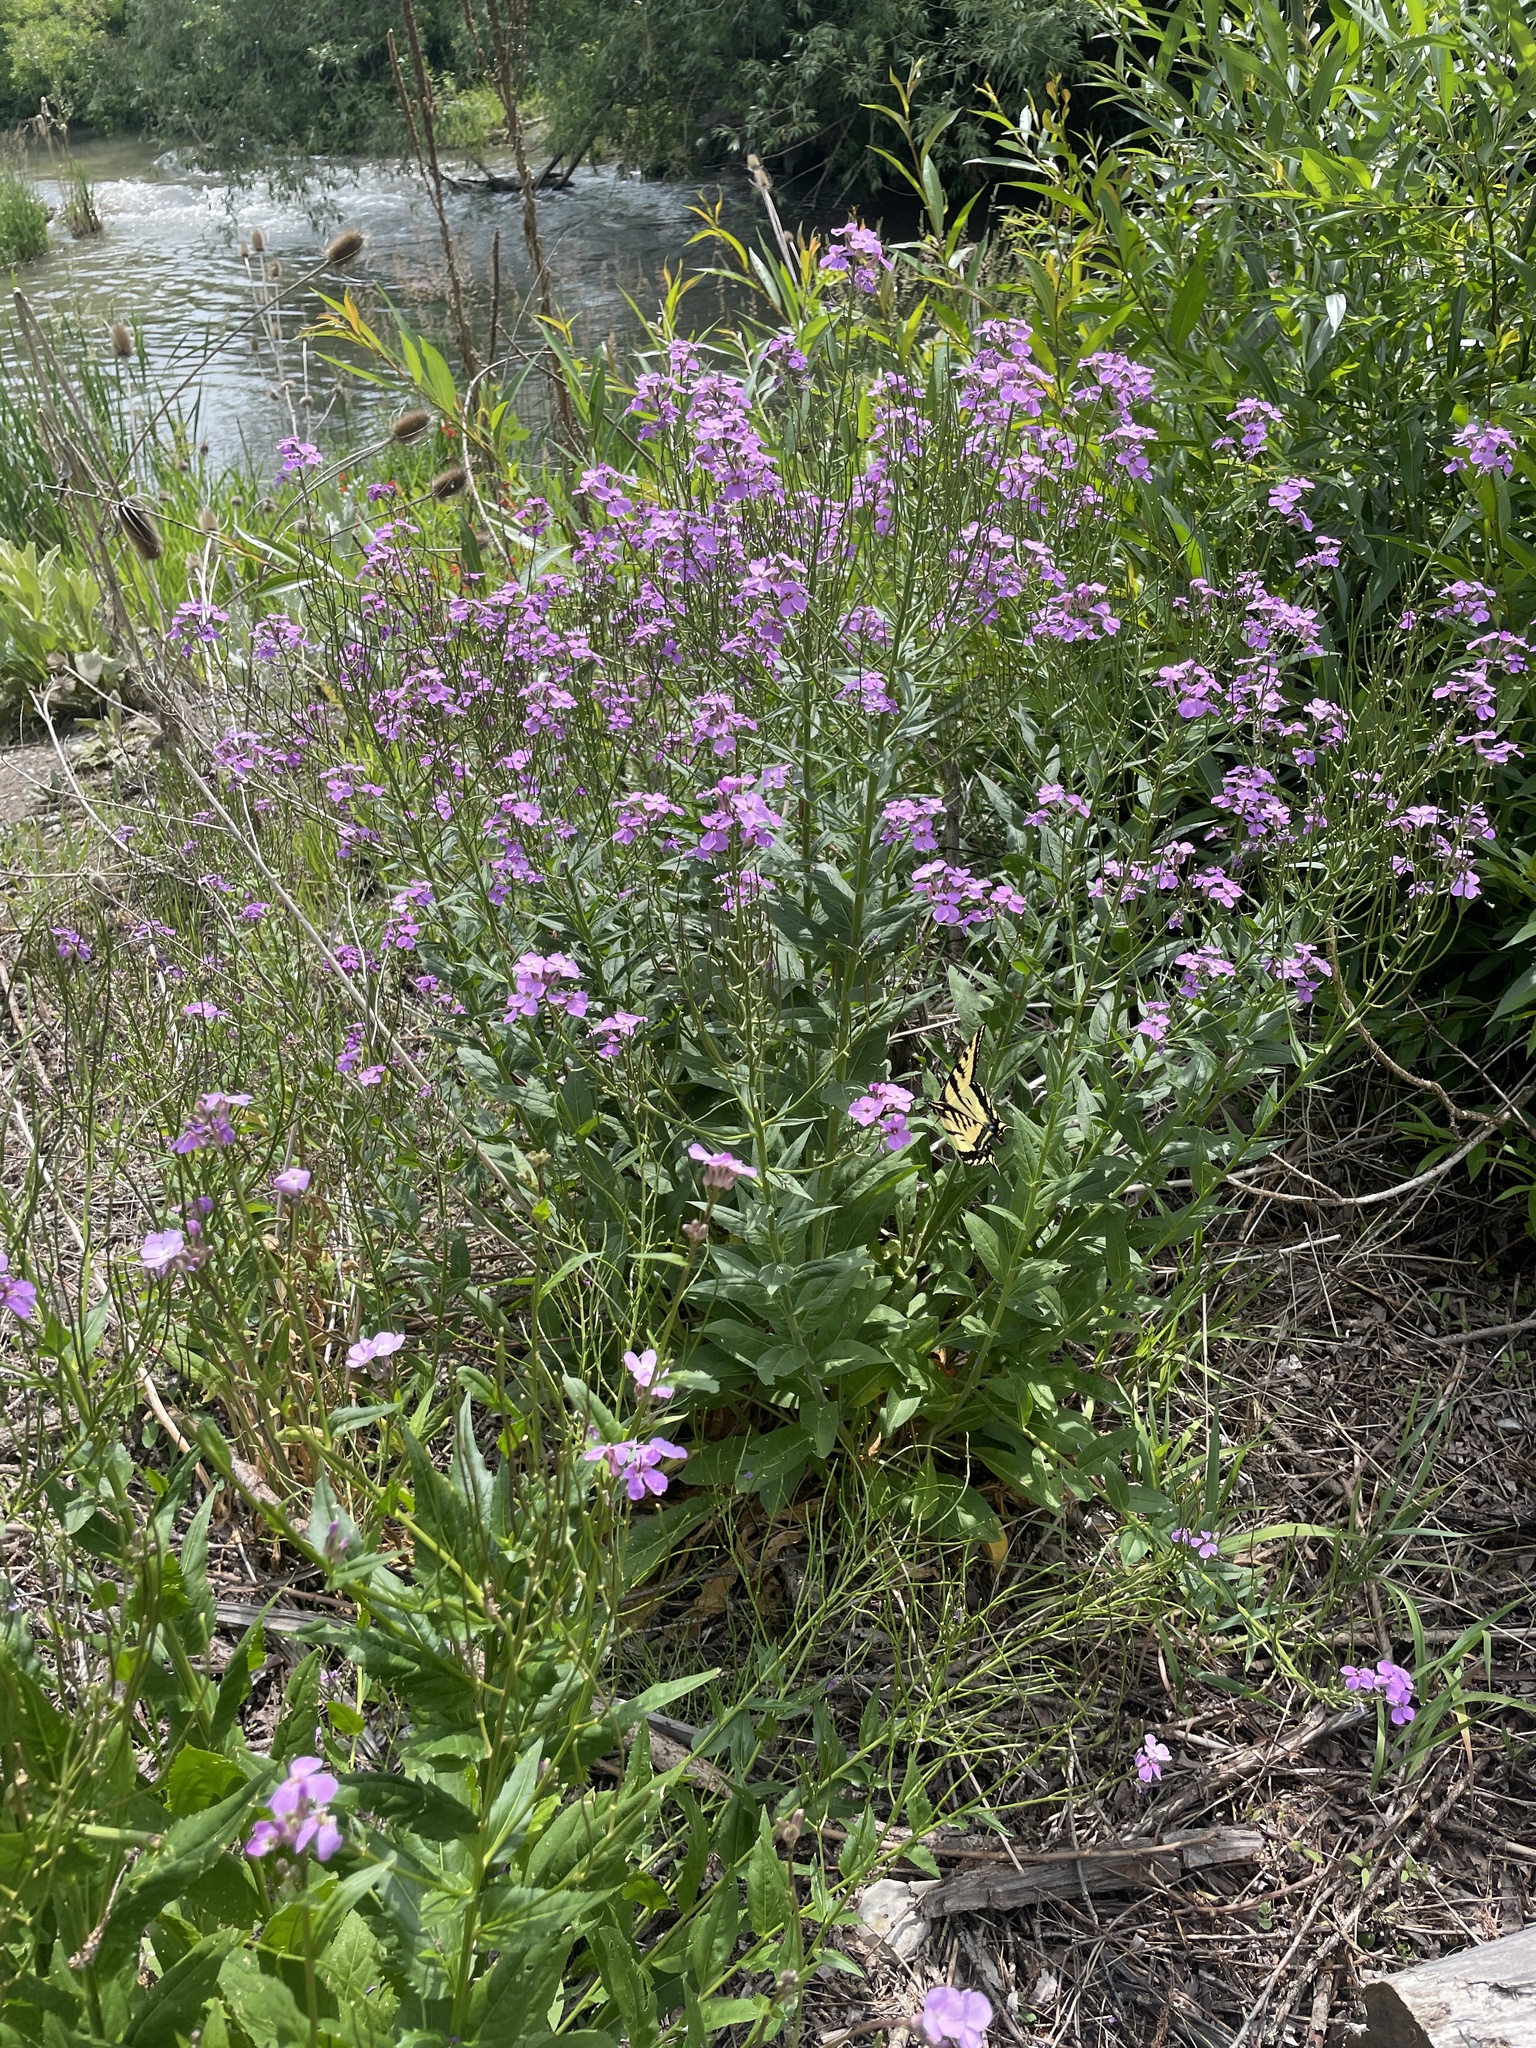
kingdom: Plantae
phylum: Tracheophyta
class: Magnoliopsida
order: Brassicales
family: Brassicaceae
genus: Hesperis
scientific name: Hesperis matronalis
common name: Dame's-violet
